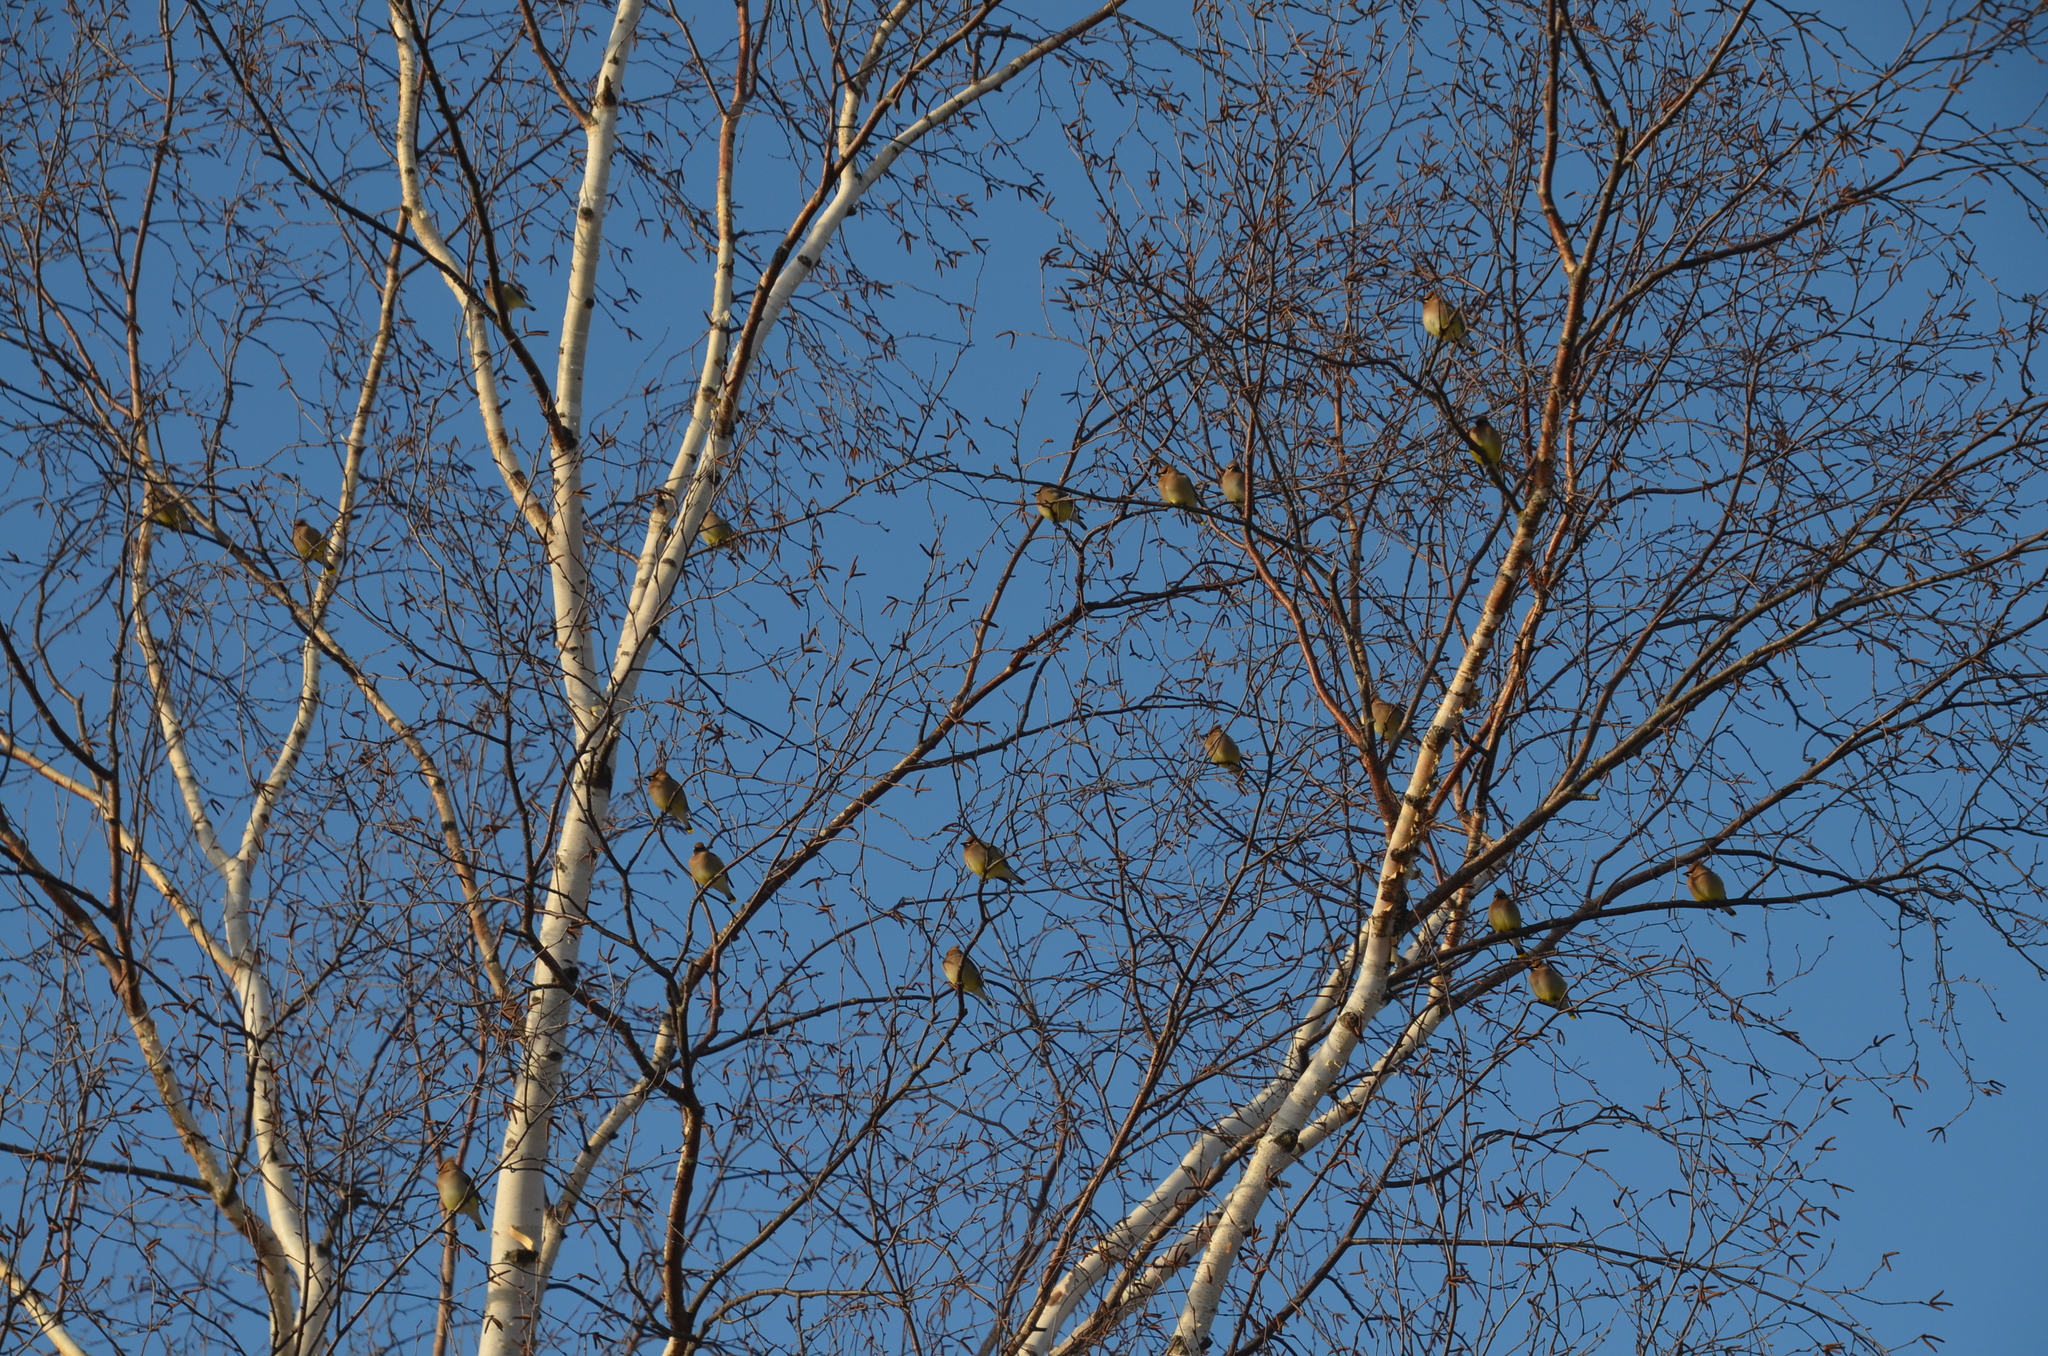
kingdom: Animalia
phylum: Chordata
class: Aves
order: Passeriformes
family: Bombycillidae
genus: Bombycilla
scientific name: Bombycilla cedrorum
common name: Cedar waxwing
